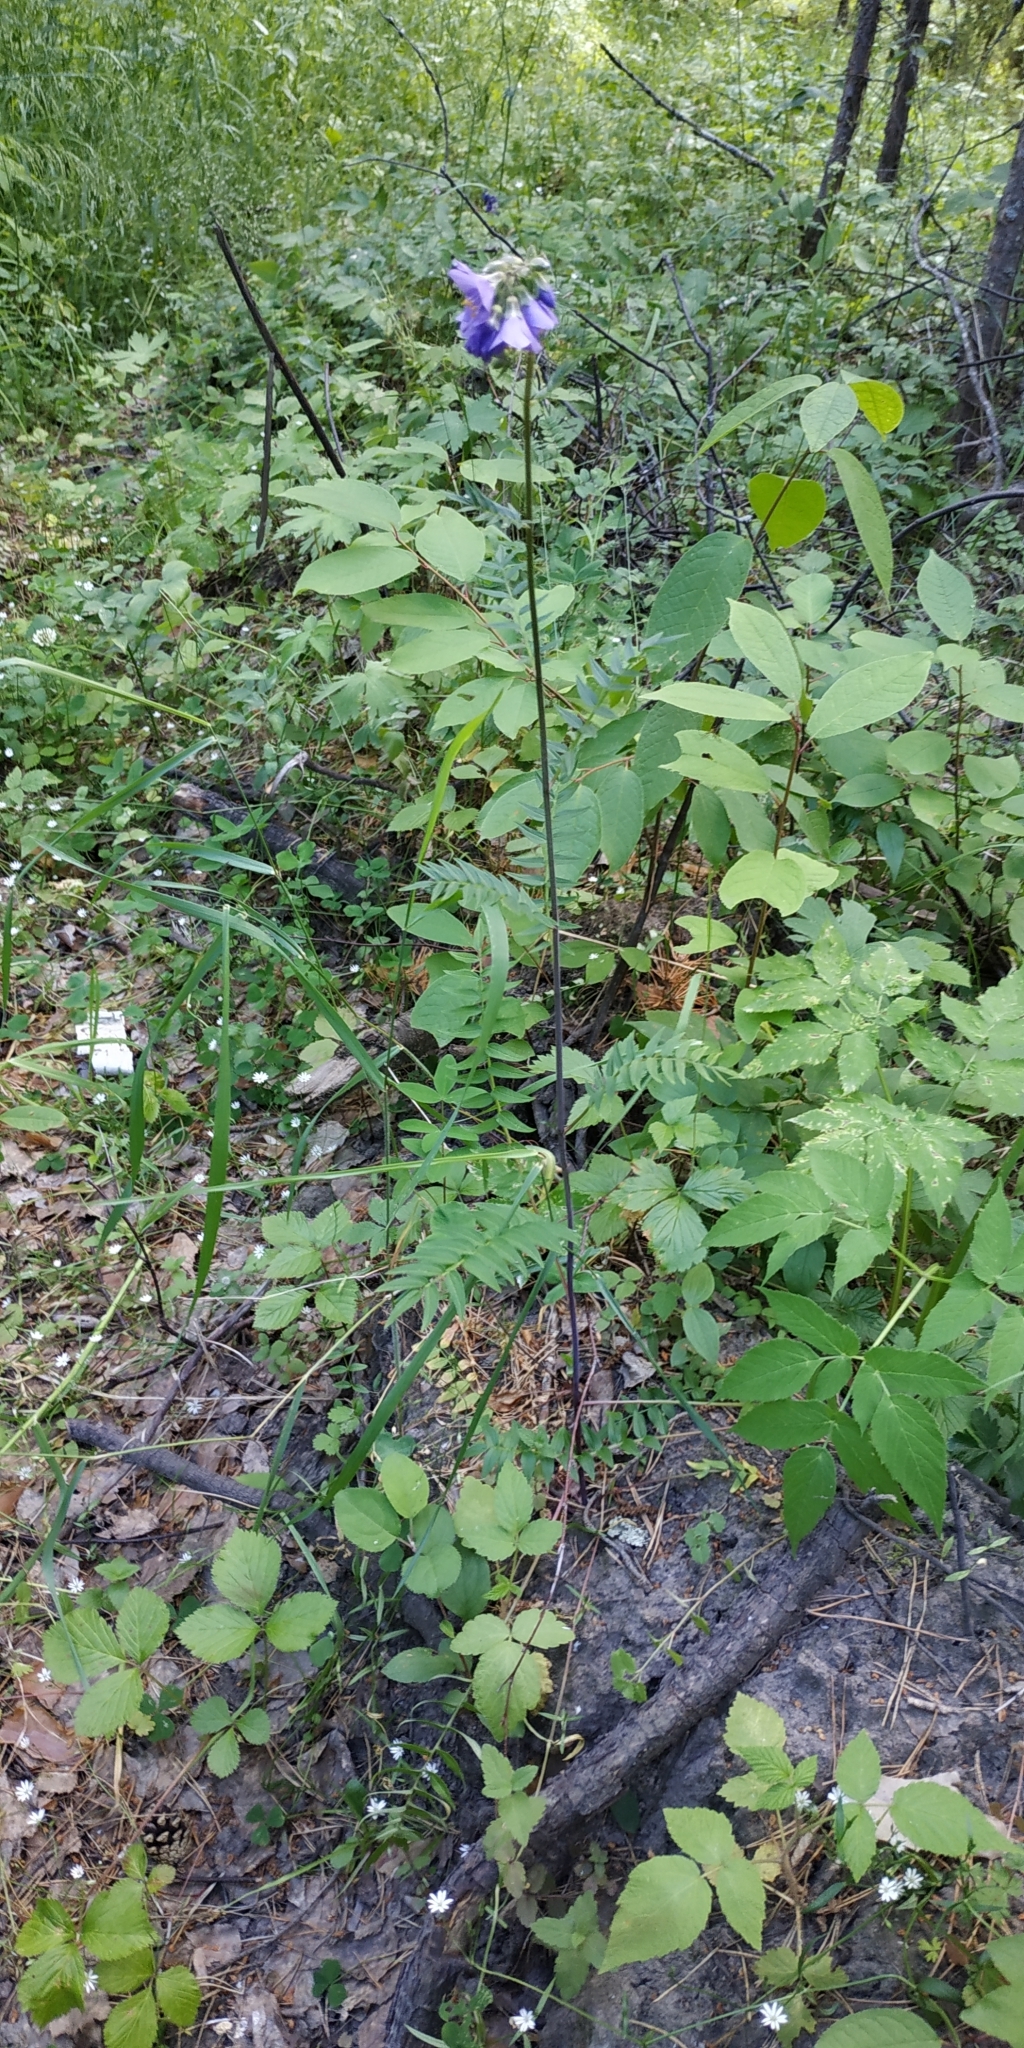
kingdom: Plantae
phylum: Tracheophyta
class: Magnoliopsida
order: Ericales
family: Polemoniaceae
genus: Polemonium
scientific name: Polemonium caeruleum
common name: Jacob's-ladder
